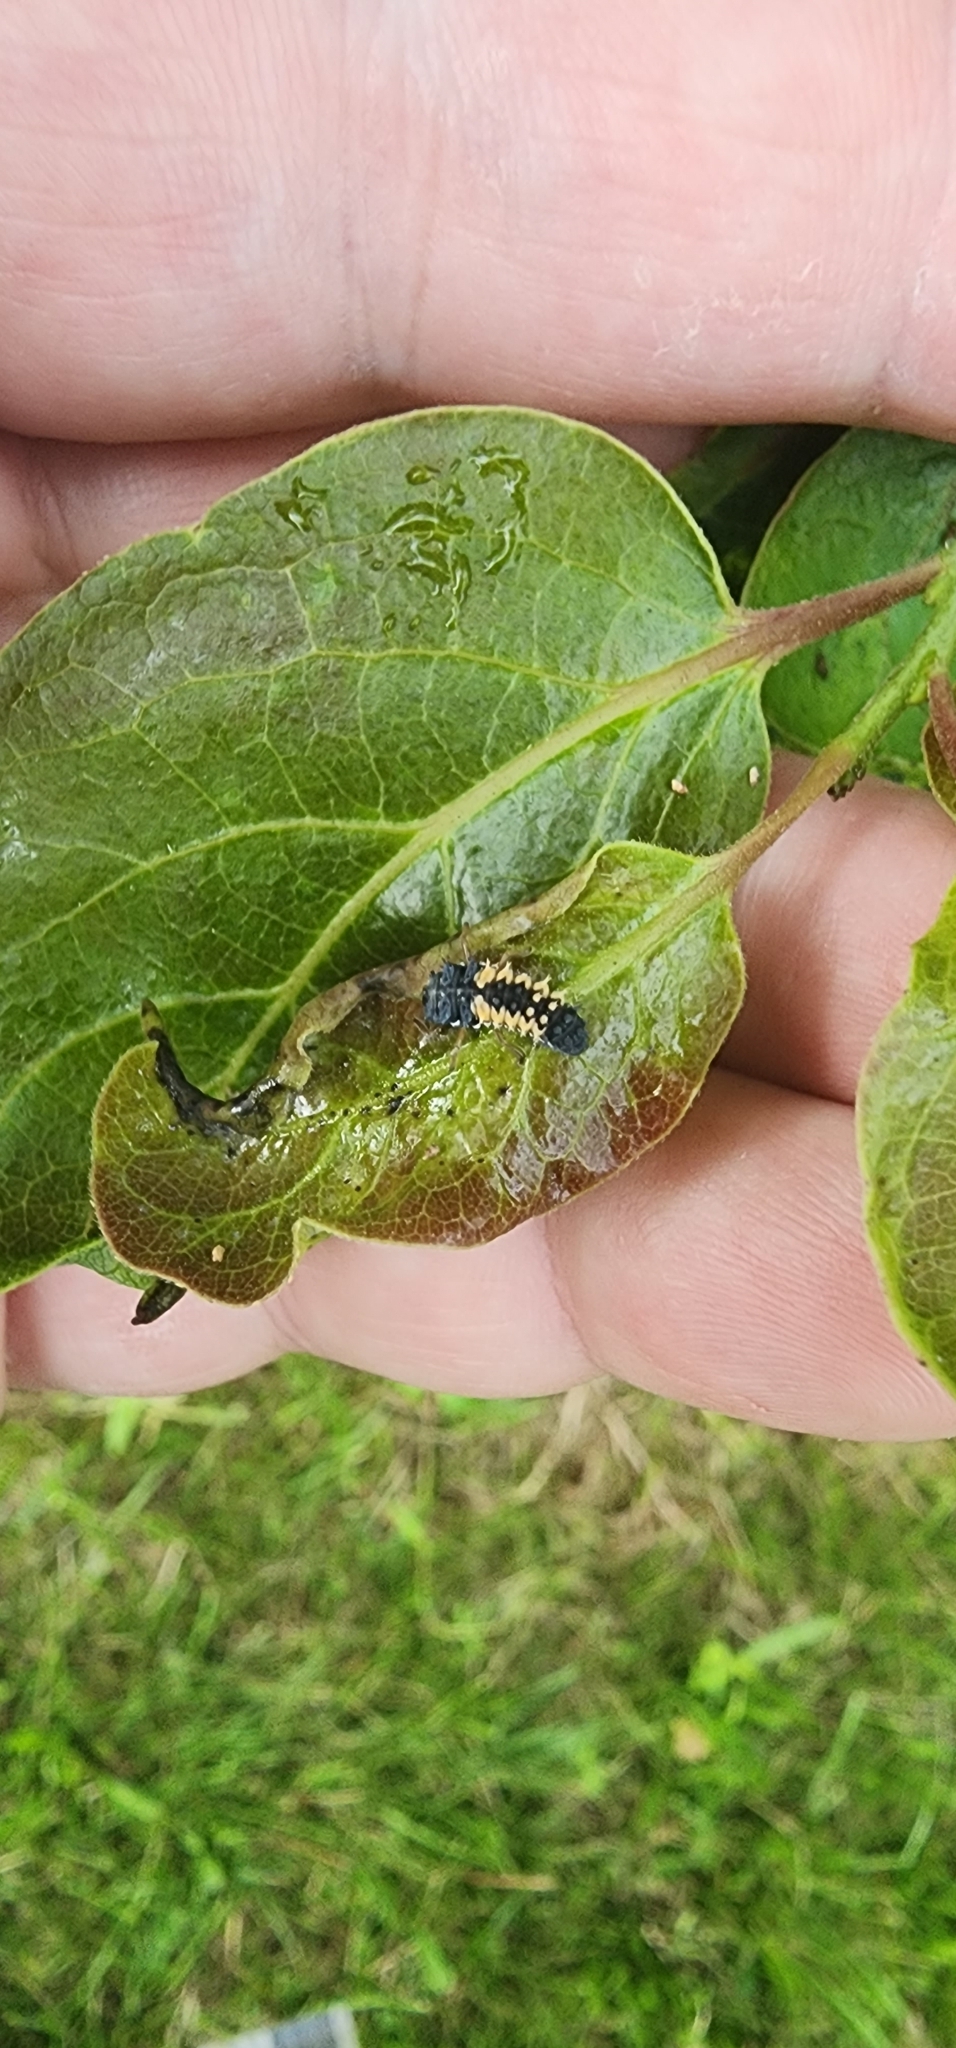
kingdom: Animalia
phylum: Arthropoda
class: Insecta
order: Coleoptera
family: Coccinellidae
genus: Harmonia
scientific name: Harmonia axyridis
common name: Harlequin ladybird
